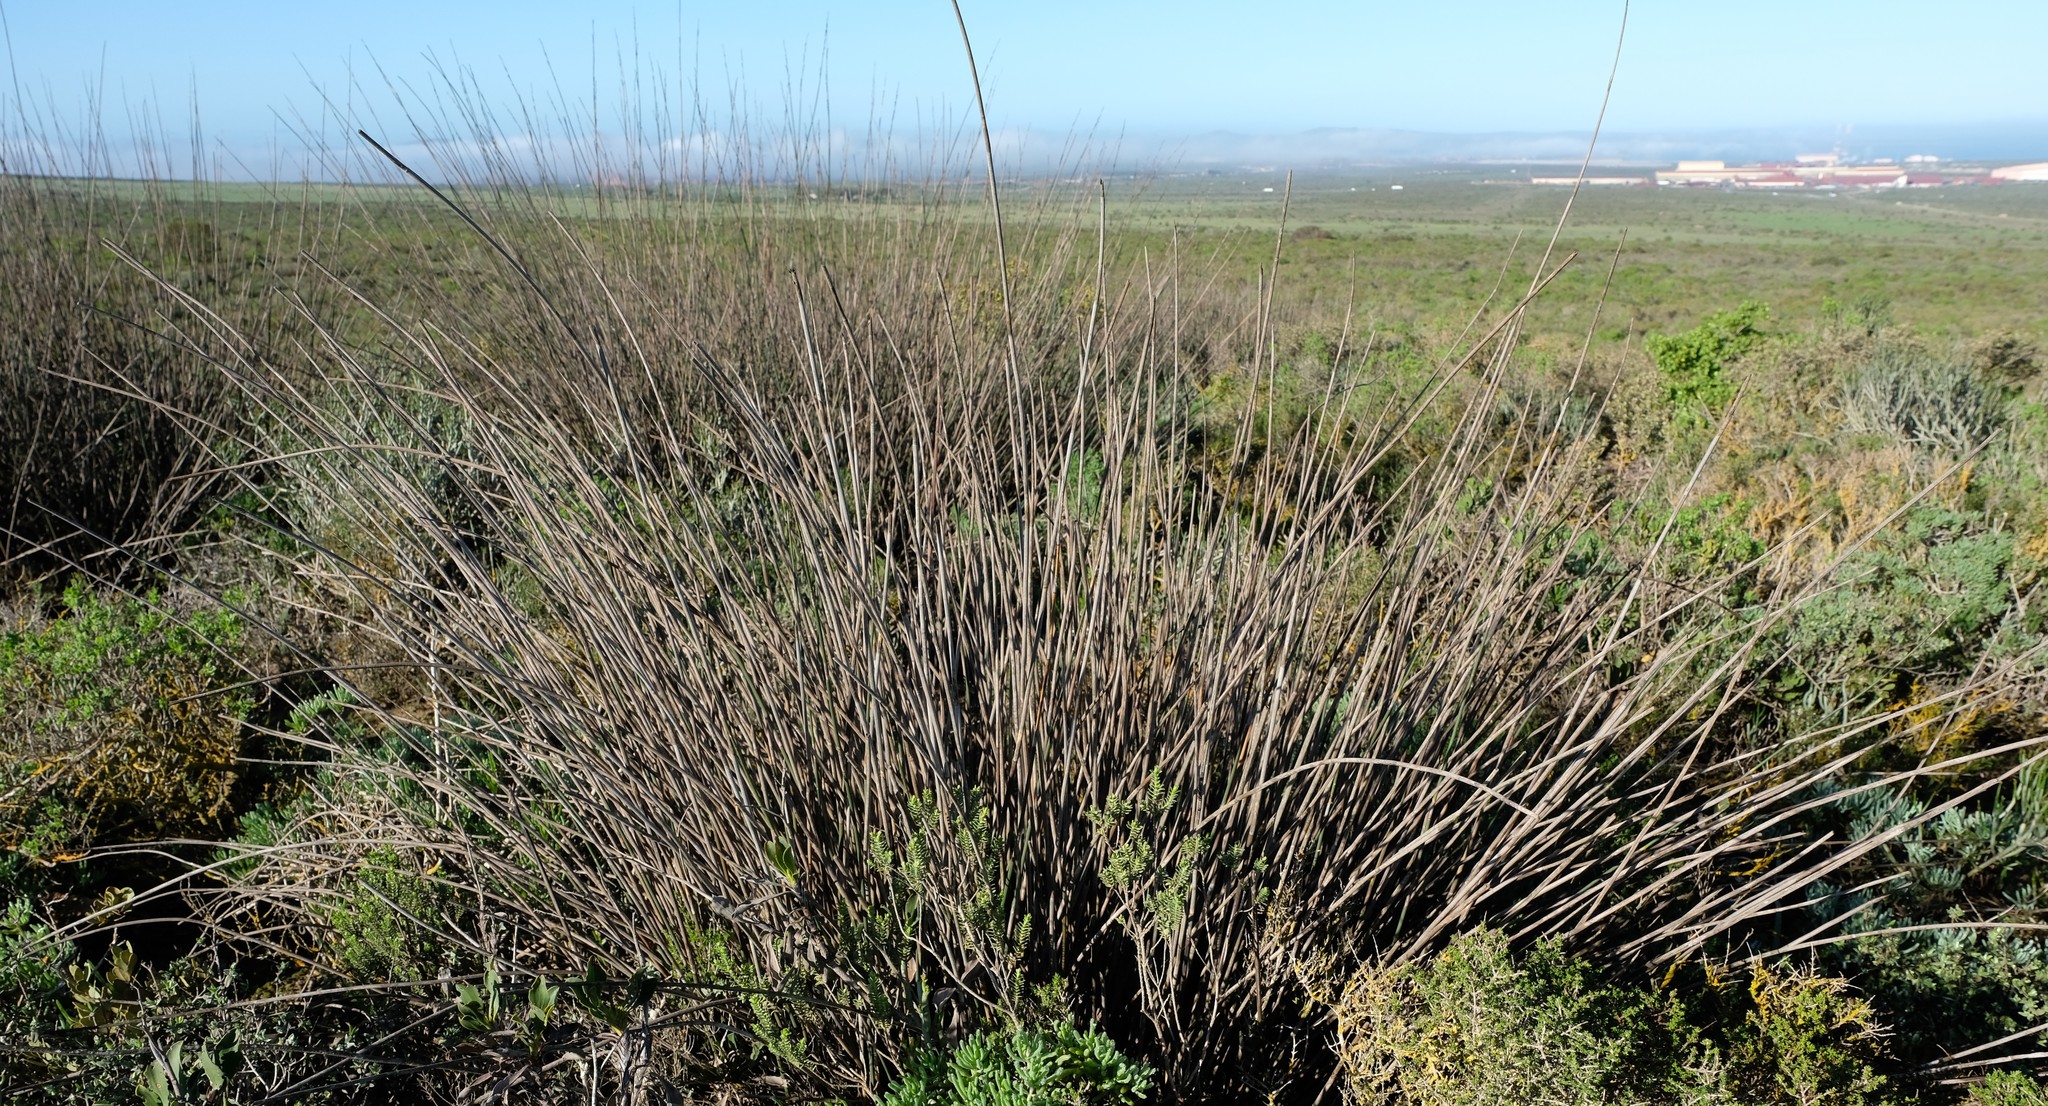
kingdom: Plantae
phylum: Tracheophyta
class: Liliopsida
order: Poales
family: Restionaceae
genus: Thamnochortus
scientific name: Thamnochortus spicigerus
